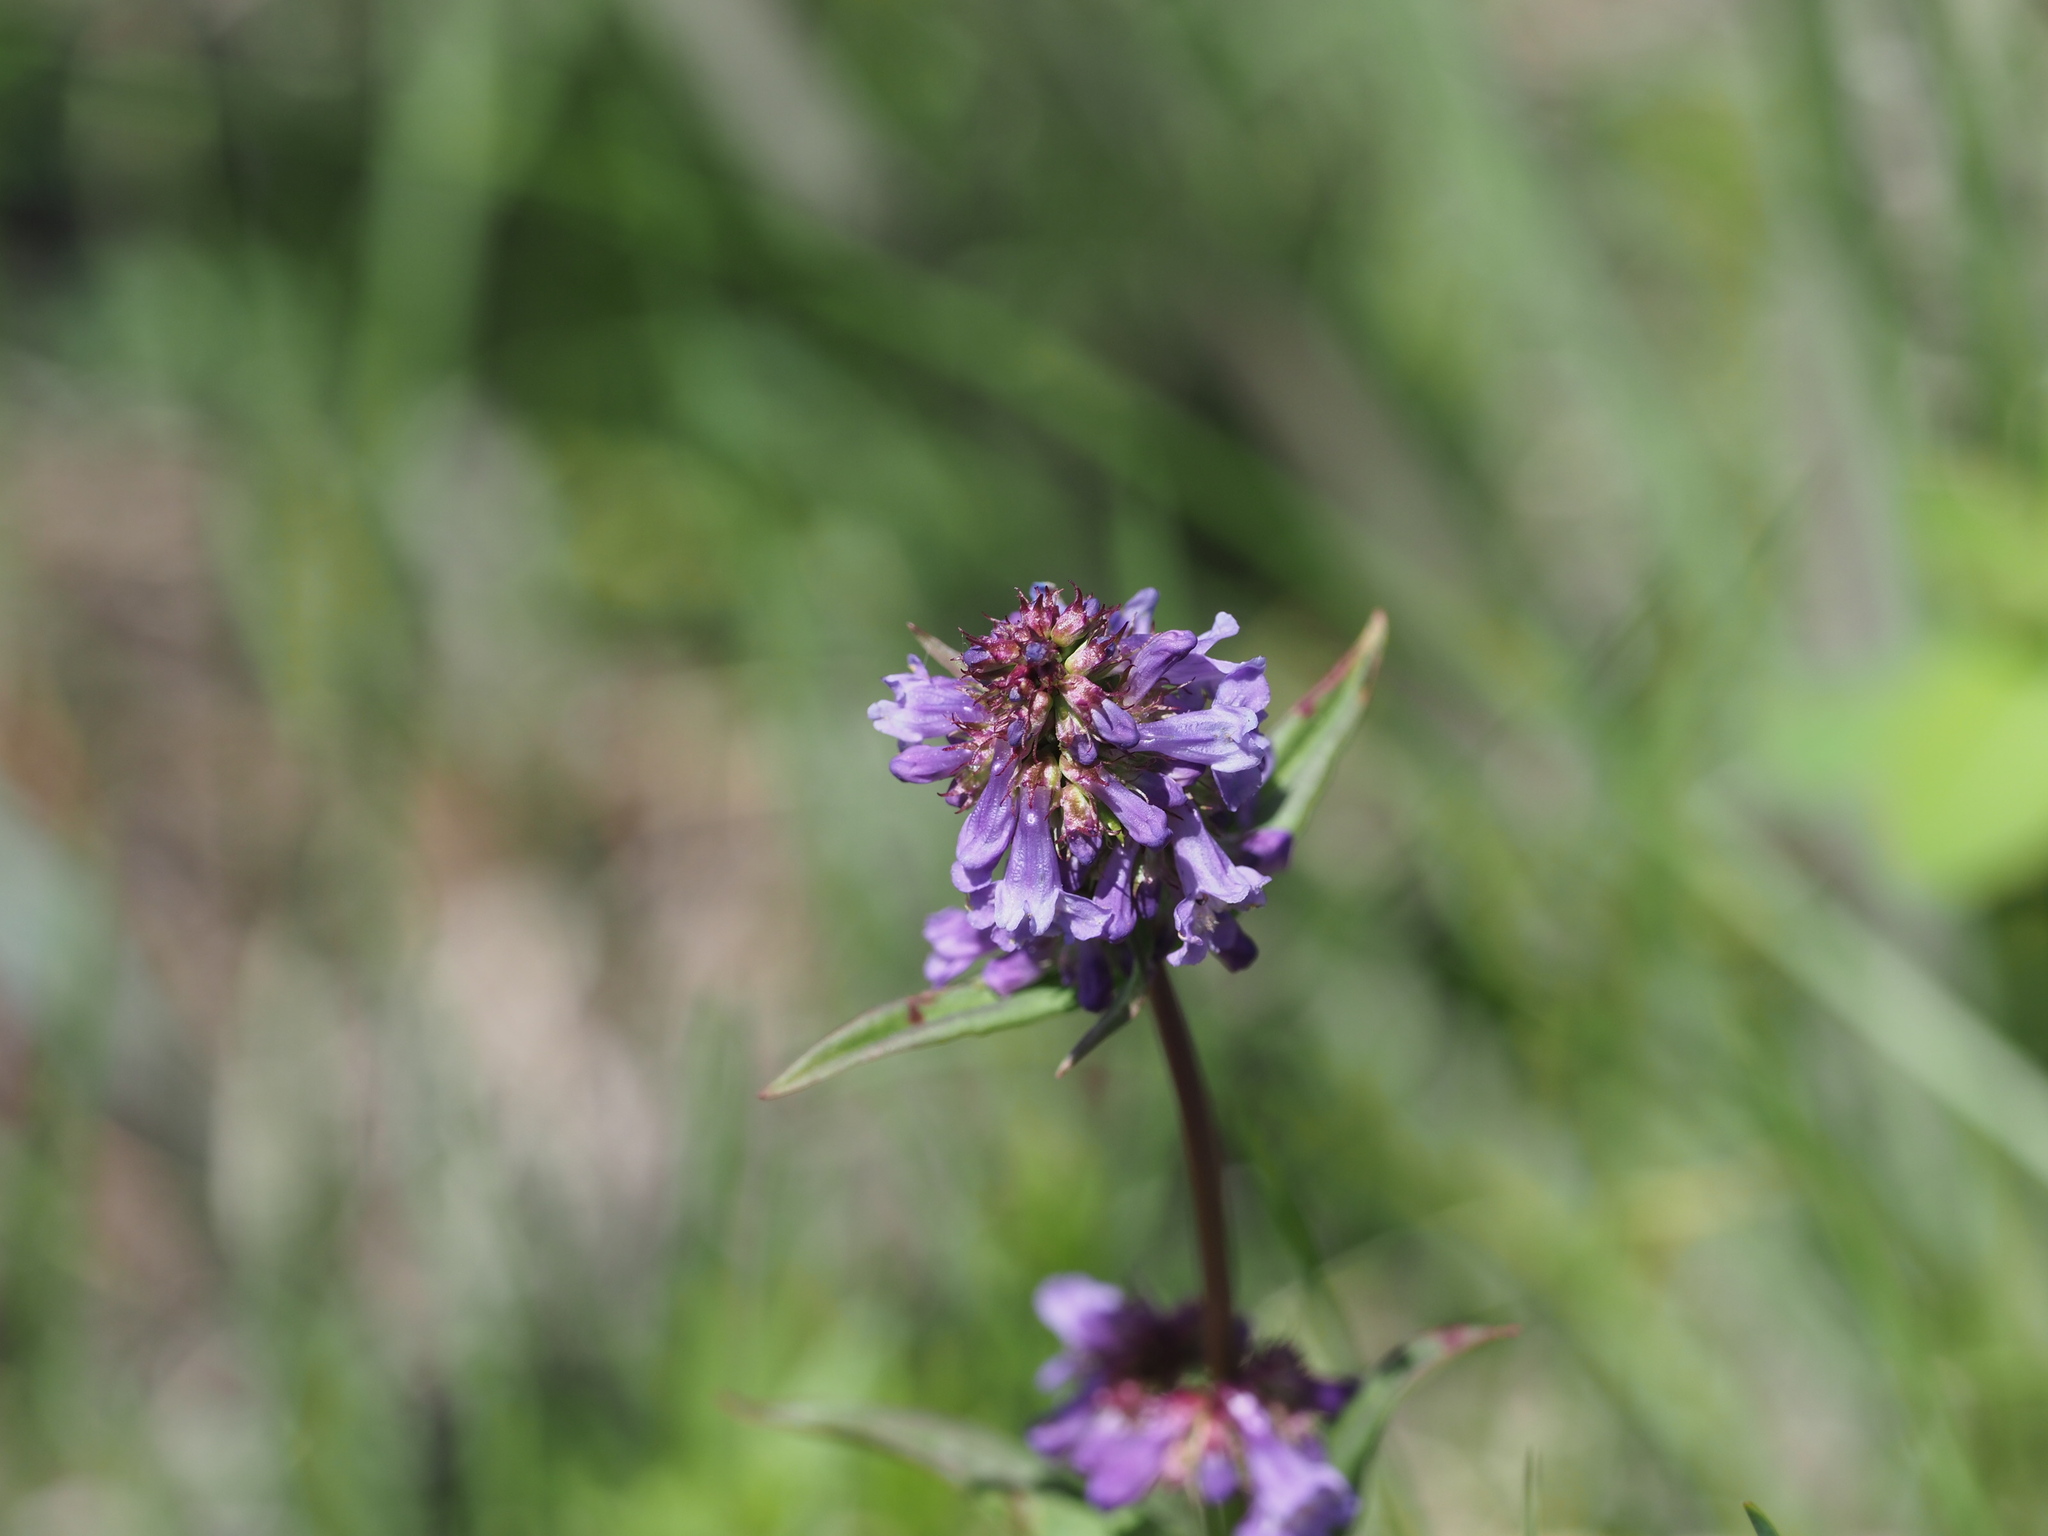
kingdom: Plantae
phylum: Tracheophyta
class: Magnoliopsida
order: Lamiales
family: Plantaginaceae
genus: Penstemon
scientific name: Penstemon procerus
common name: Small-flower penstemon
